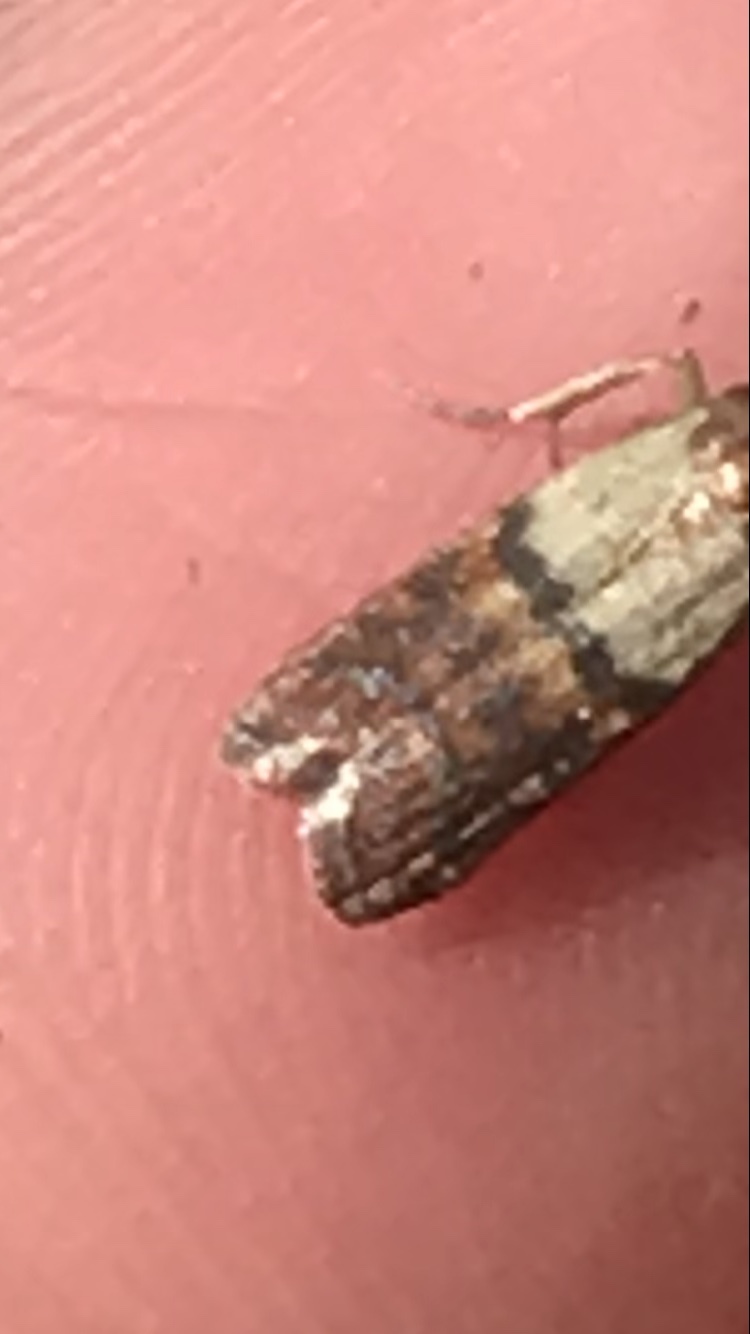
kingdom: Animalia
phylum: Arthropoda
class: Insecta
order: Lepidoptera
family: Pyralidae
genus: Plodia
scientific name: Plodia interpunctella
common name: Indian meal moth
